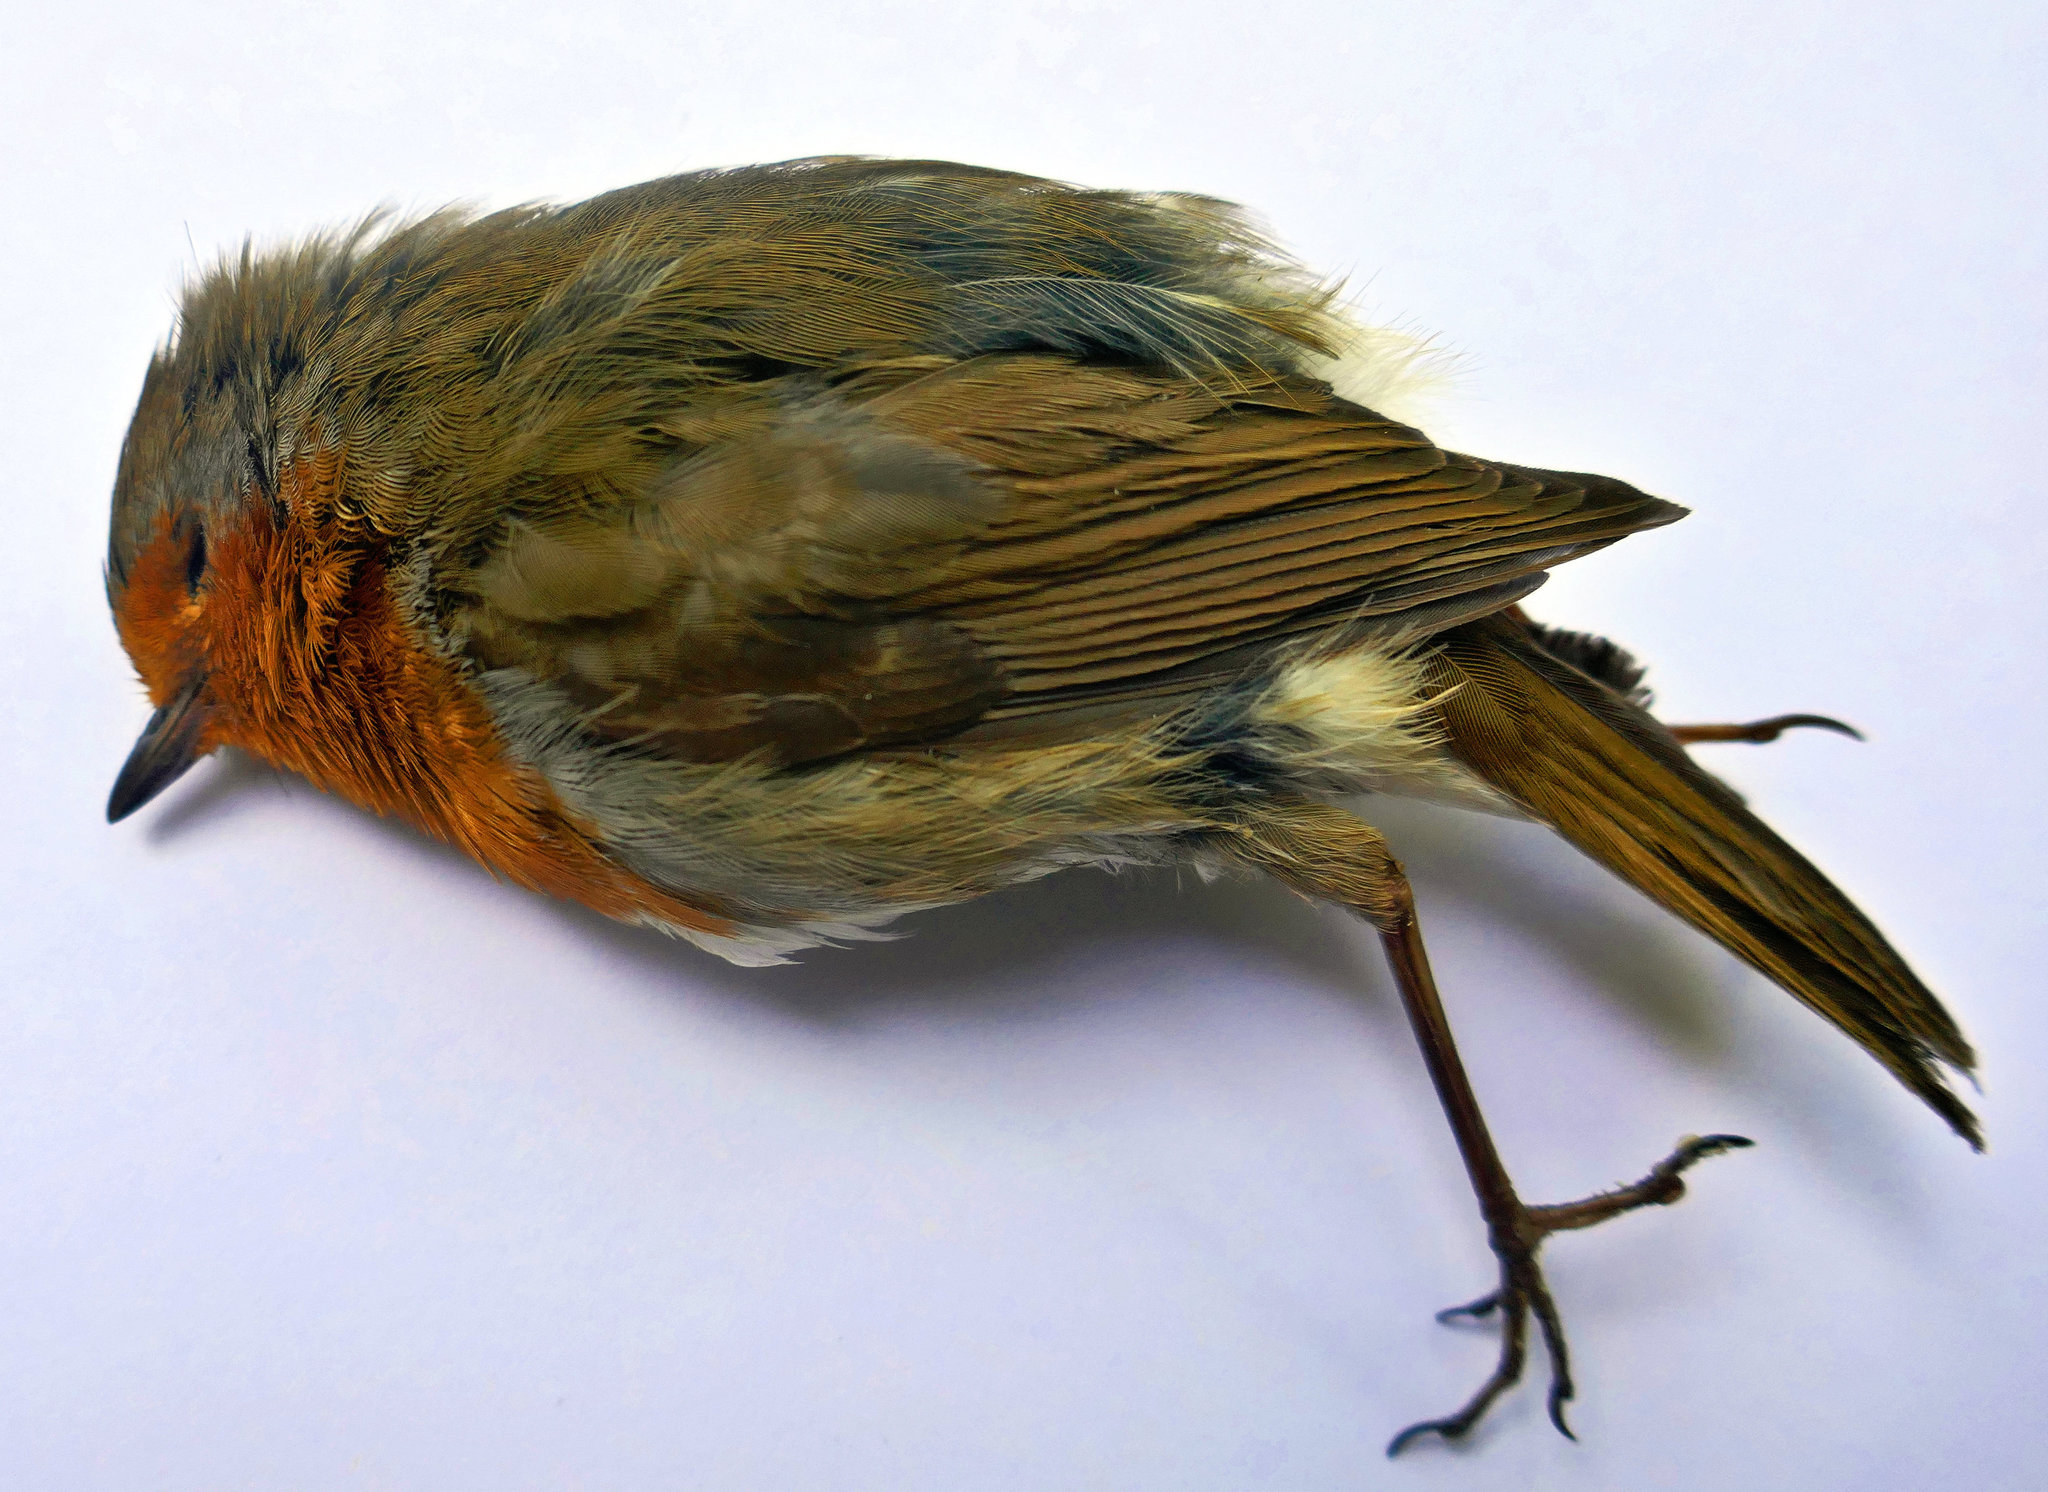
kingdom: Animalia
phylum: Chordata
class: Aves
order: Passeriformes
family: Muscicapidae
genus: Erithacus
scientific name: Erithacus rubecula
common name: European robin
